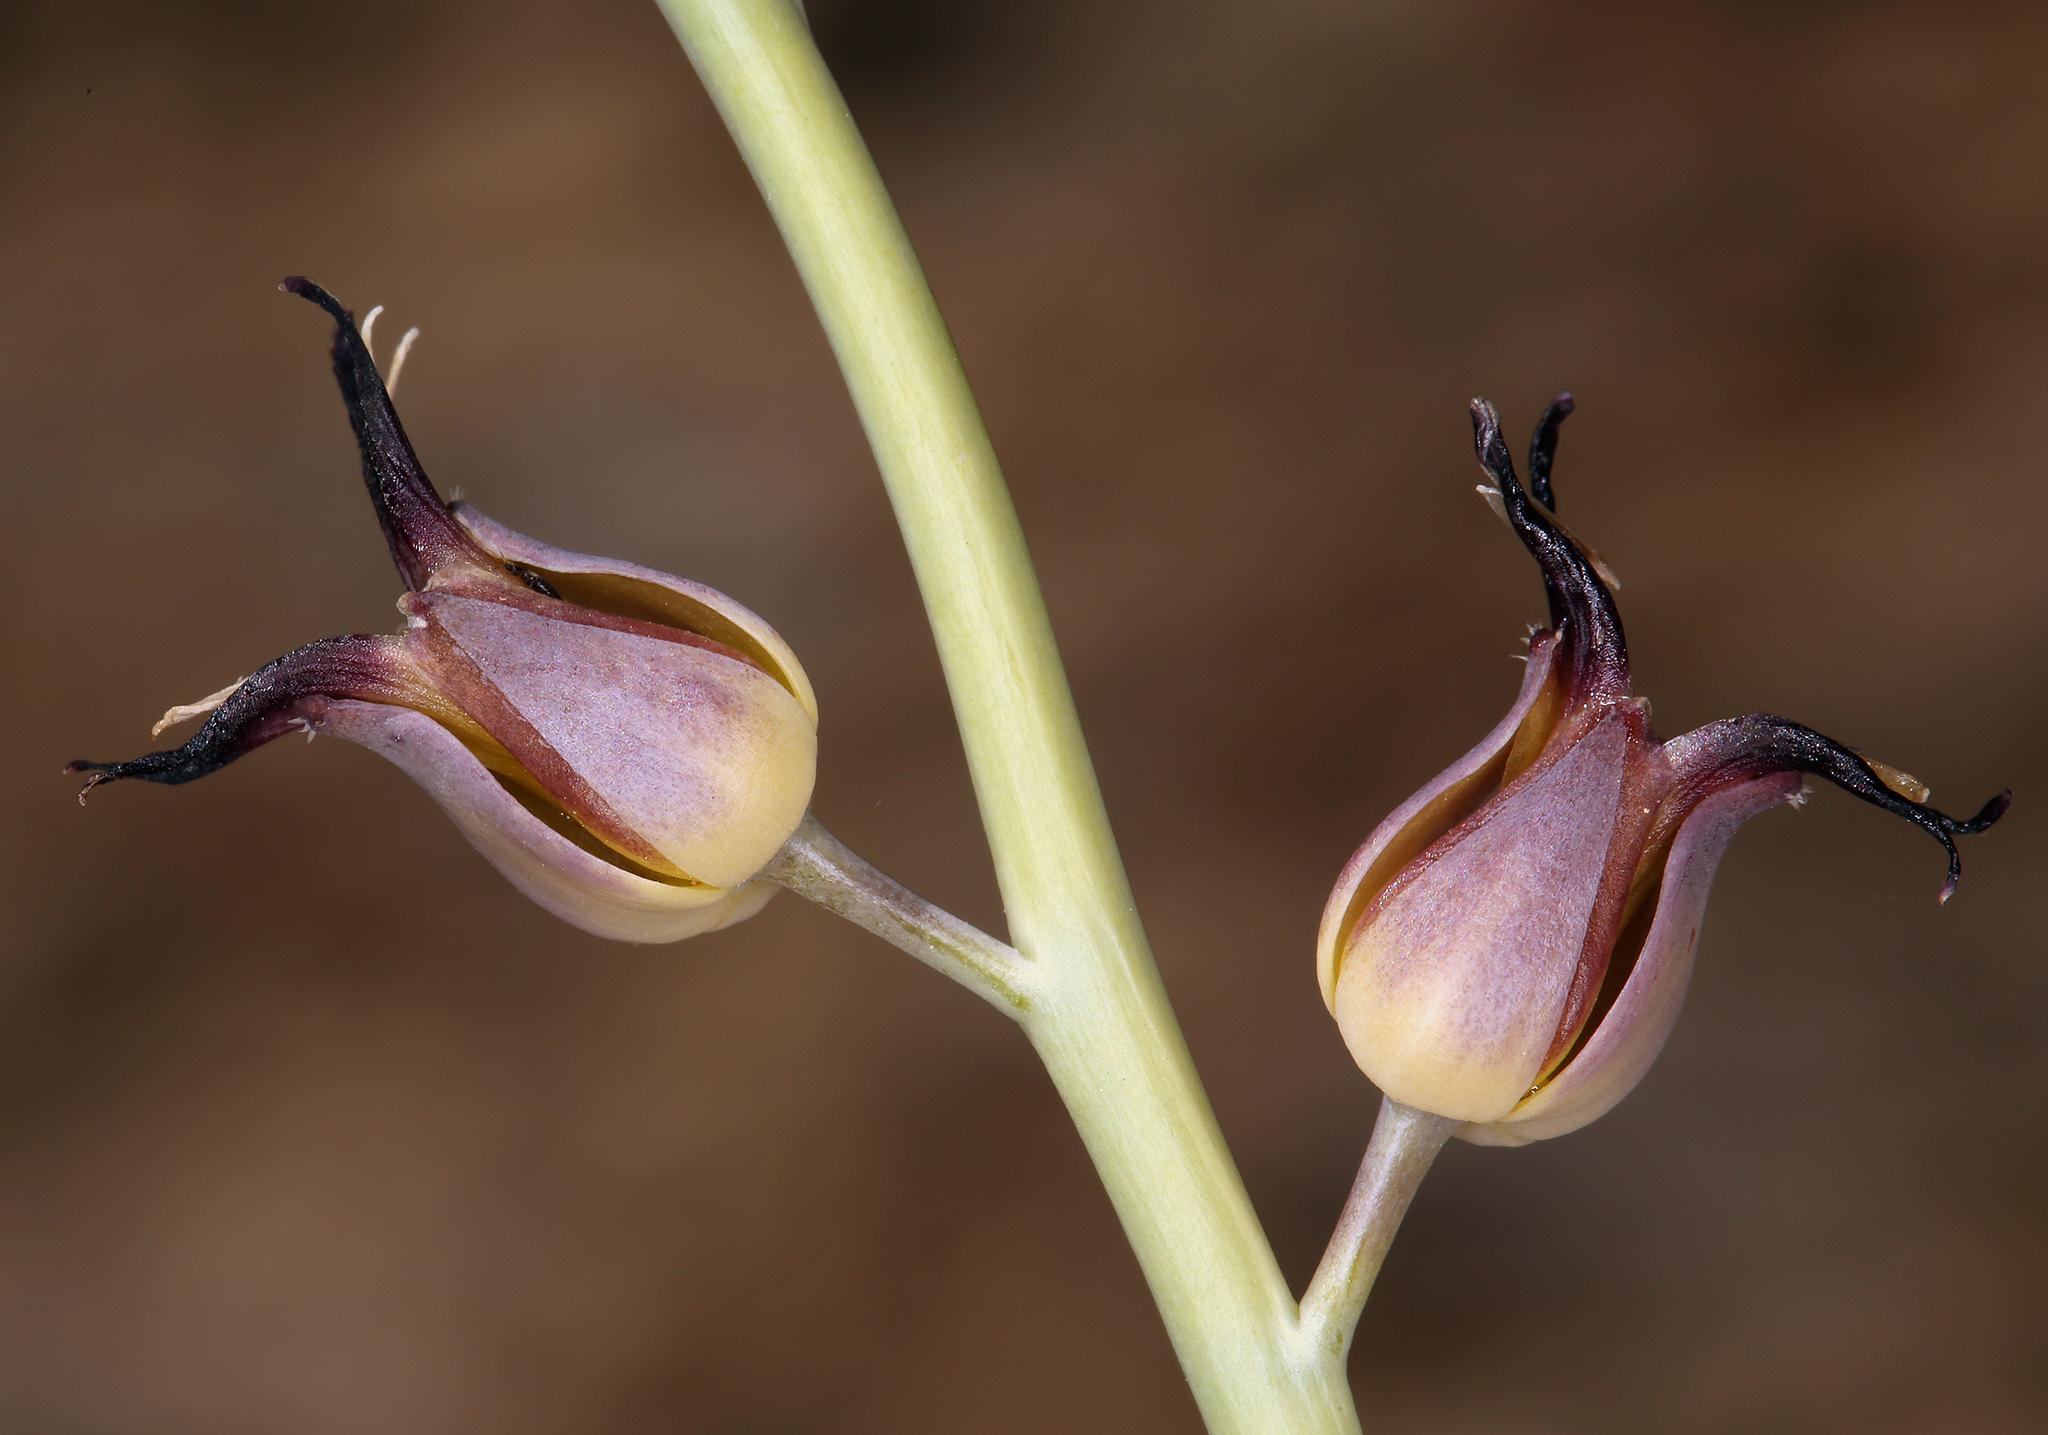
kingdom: Plantae
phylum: Tracheophyta
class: Magnoliopsida
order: Brassicales
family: Brassicaceae
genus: Streptanthus
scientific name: Streptanthus cordatus
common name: Heart-leaf jewel-flower
